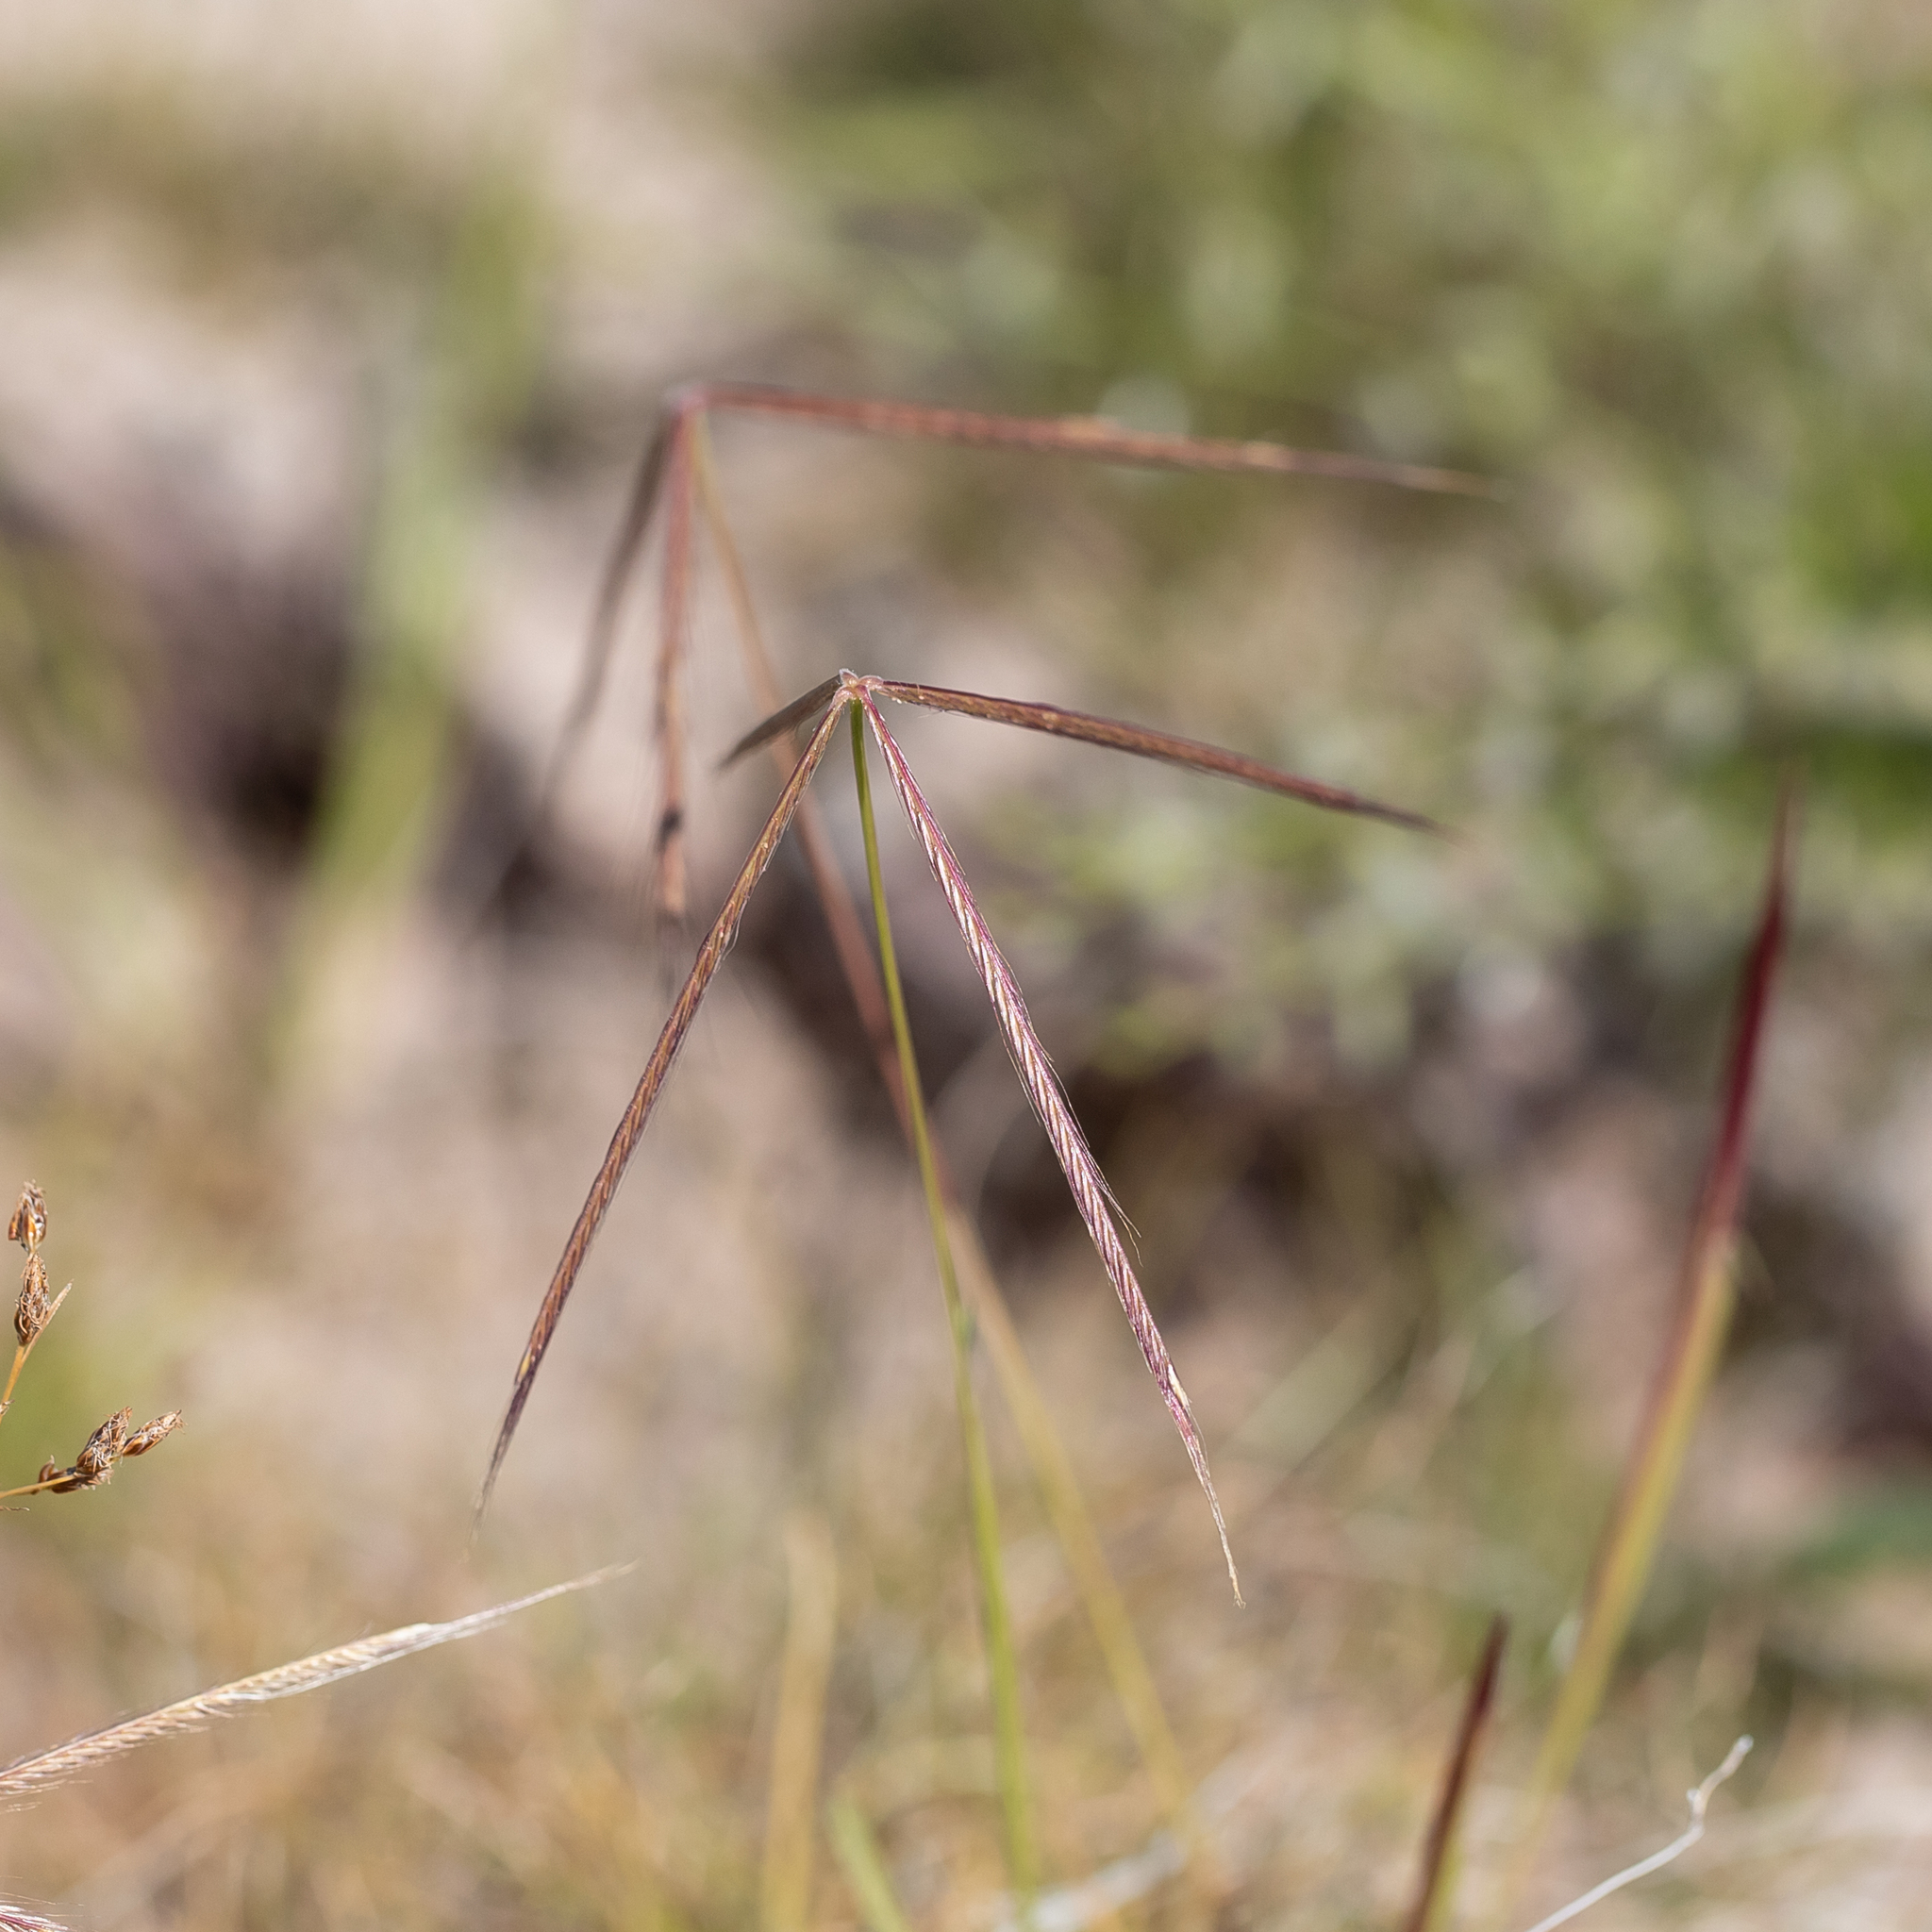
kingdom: Plantae
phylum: Tracheophyta
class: Liliopsida
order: Poales
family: Poaceae
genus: Chloris
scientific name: Chloris pectinata
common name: Comb windmill grass
